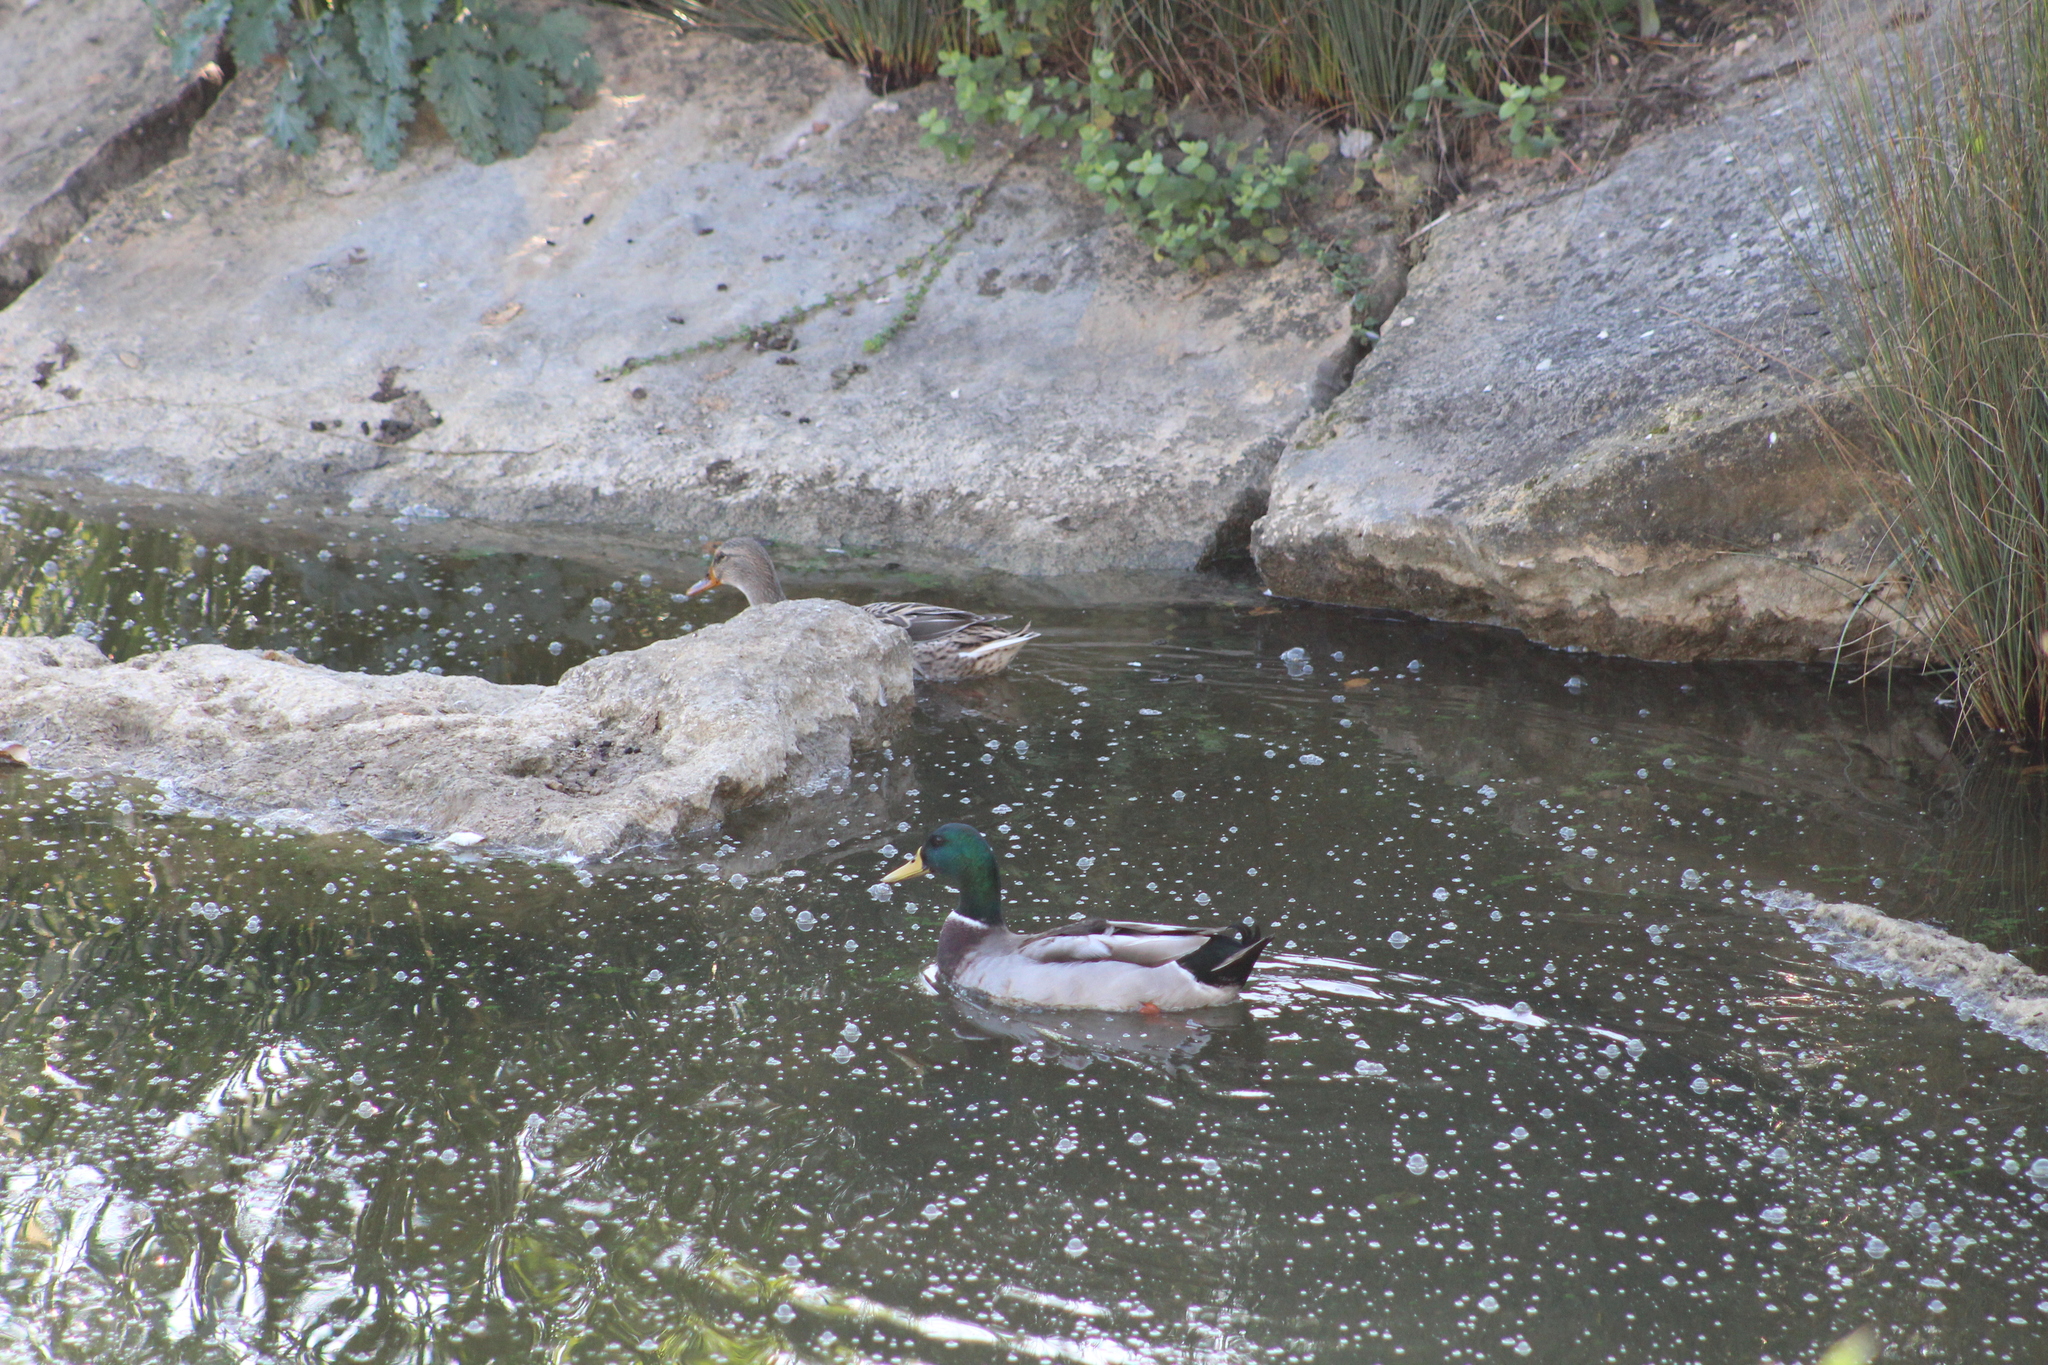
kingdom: Animalia
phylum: Chordata
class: Aves
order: Anseriformes
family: Anatidae
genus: Anas
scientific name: Anas platyrhynchos
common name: Mallard
